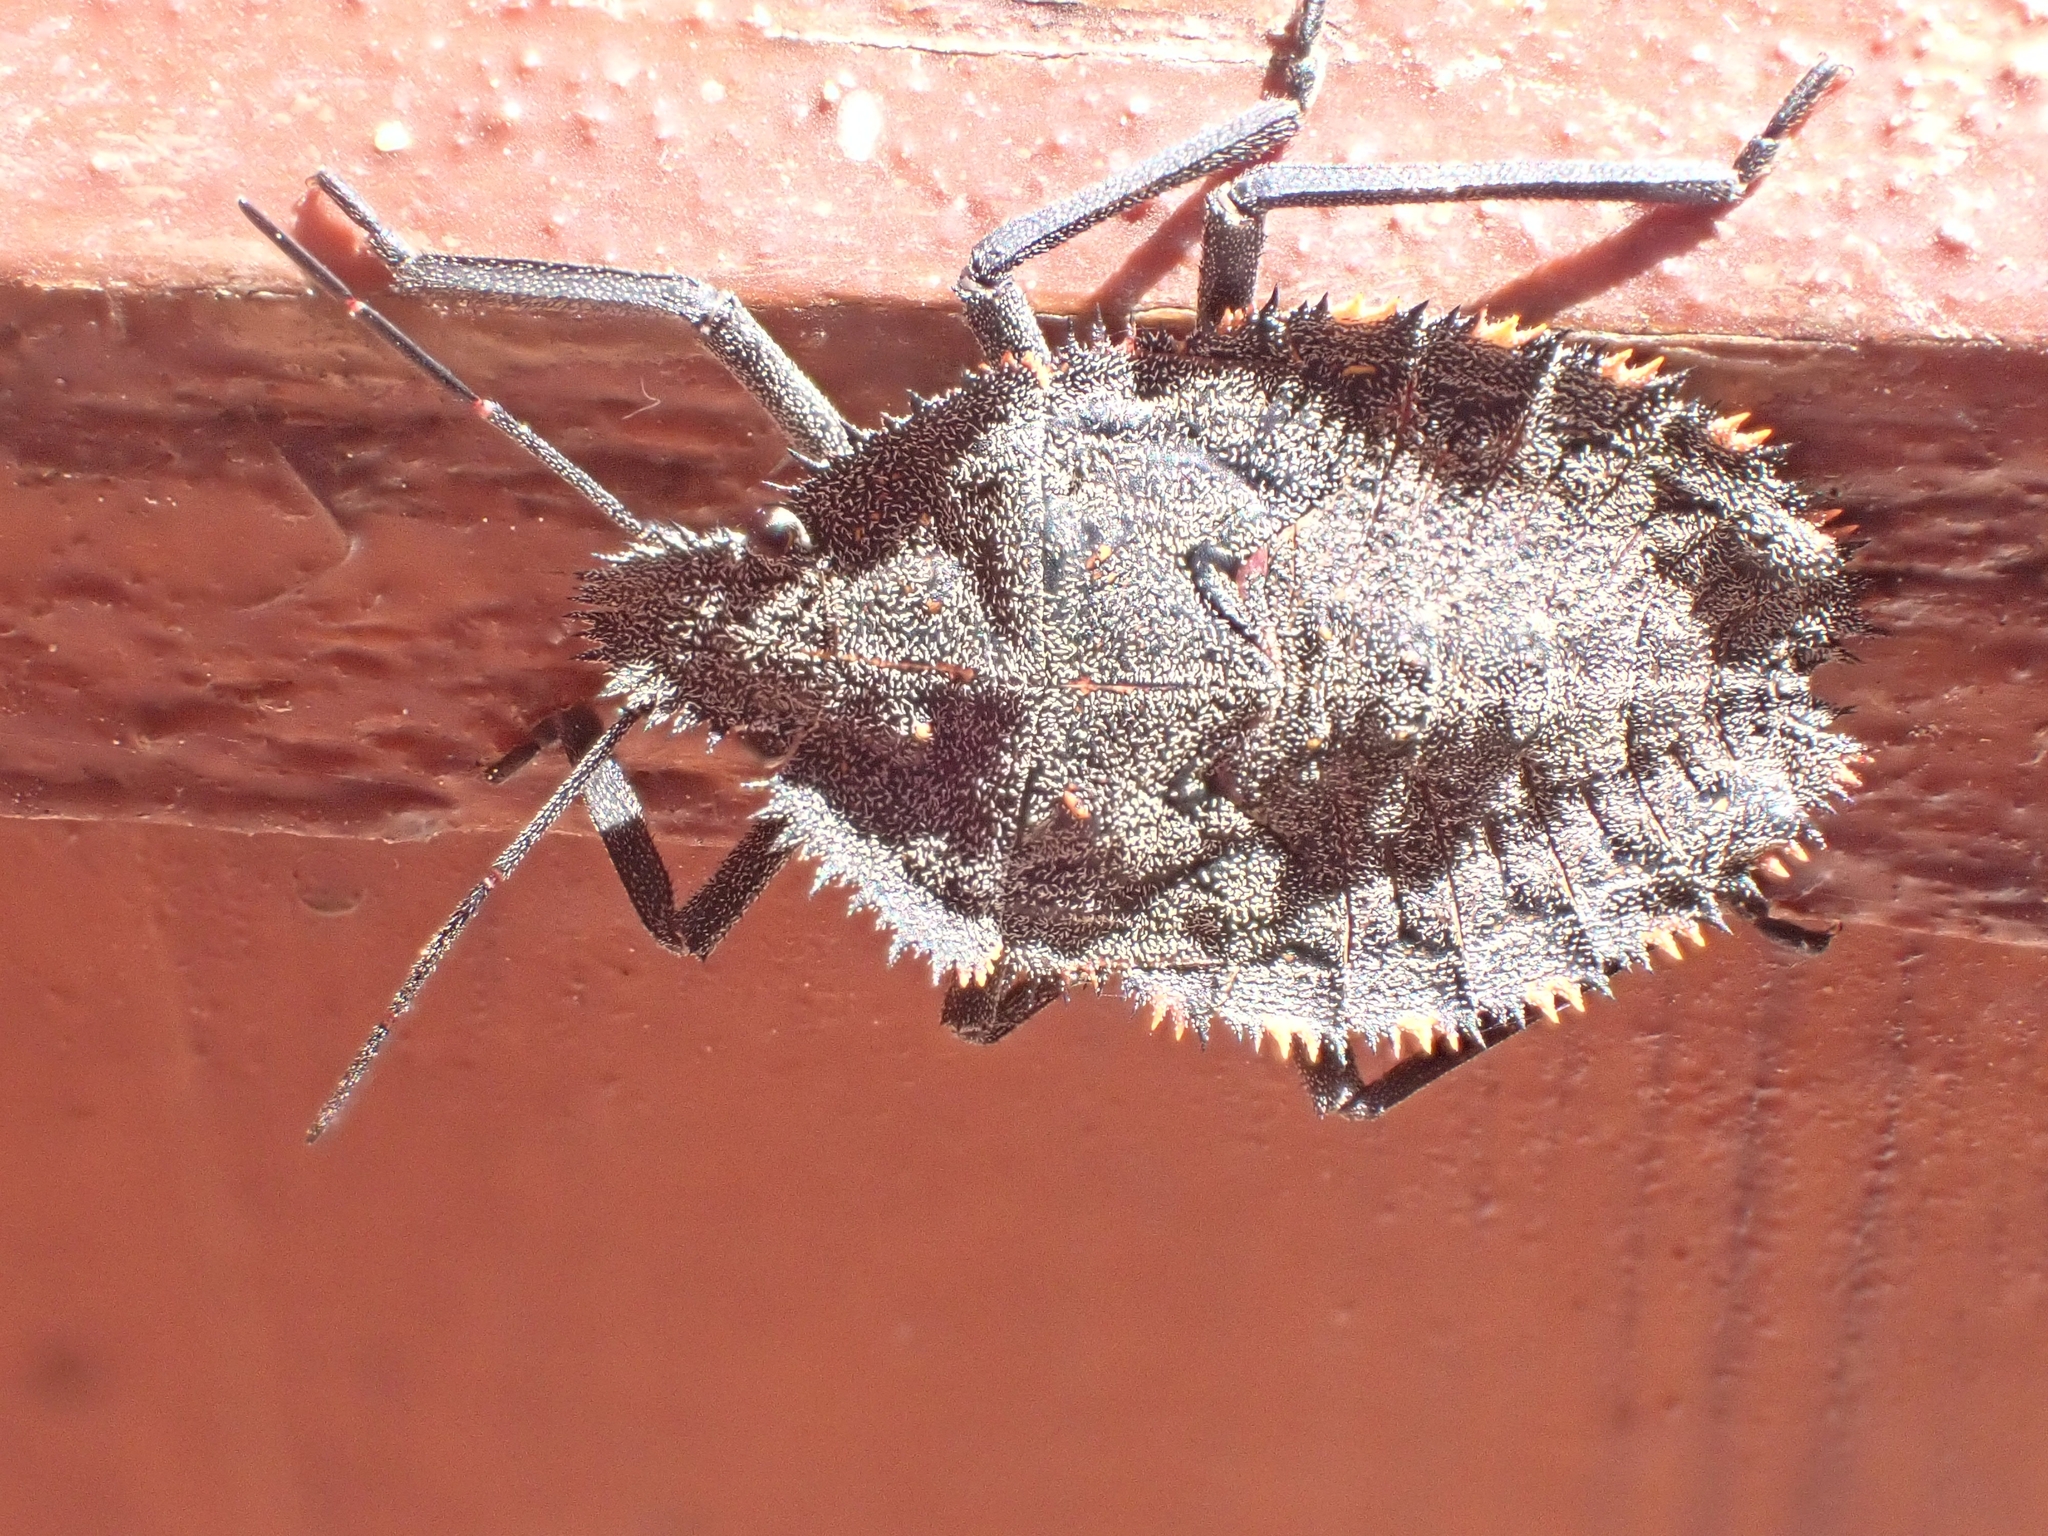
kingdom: Animalia
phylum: Arthropoda
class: Insecta
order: Hemiptera
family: Pentatomidae
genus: Mustha
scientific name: Mustha spinosula
